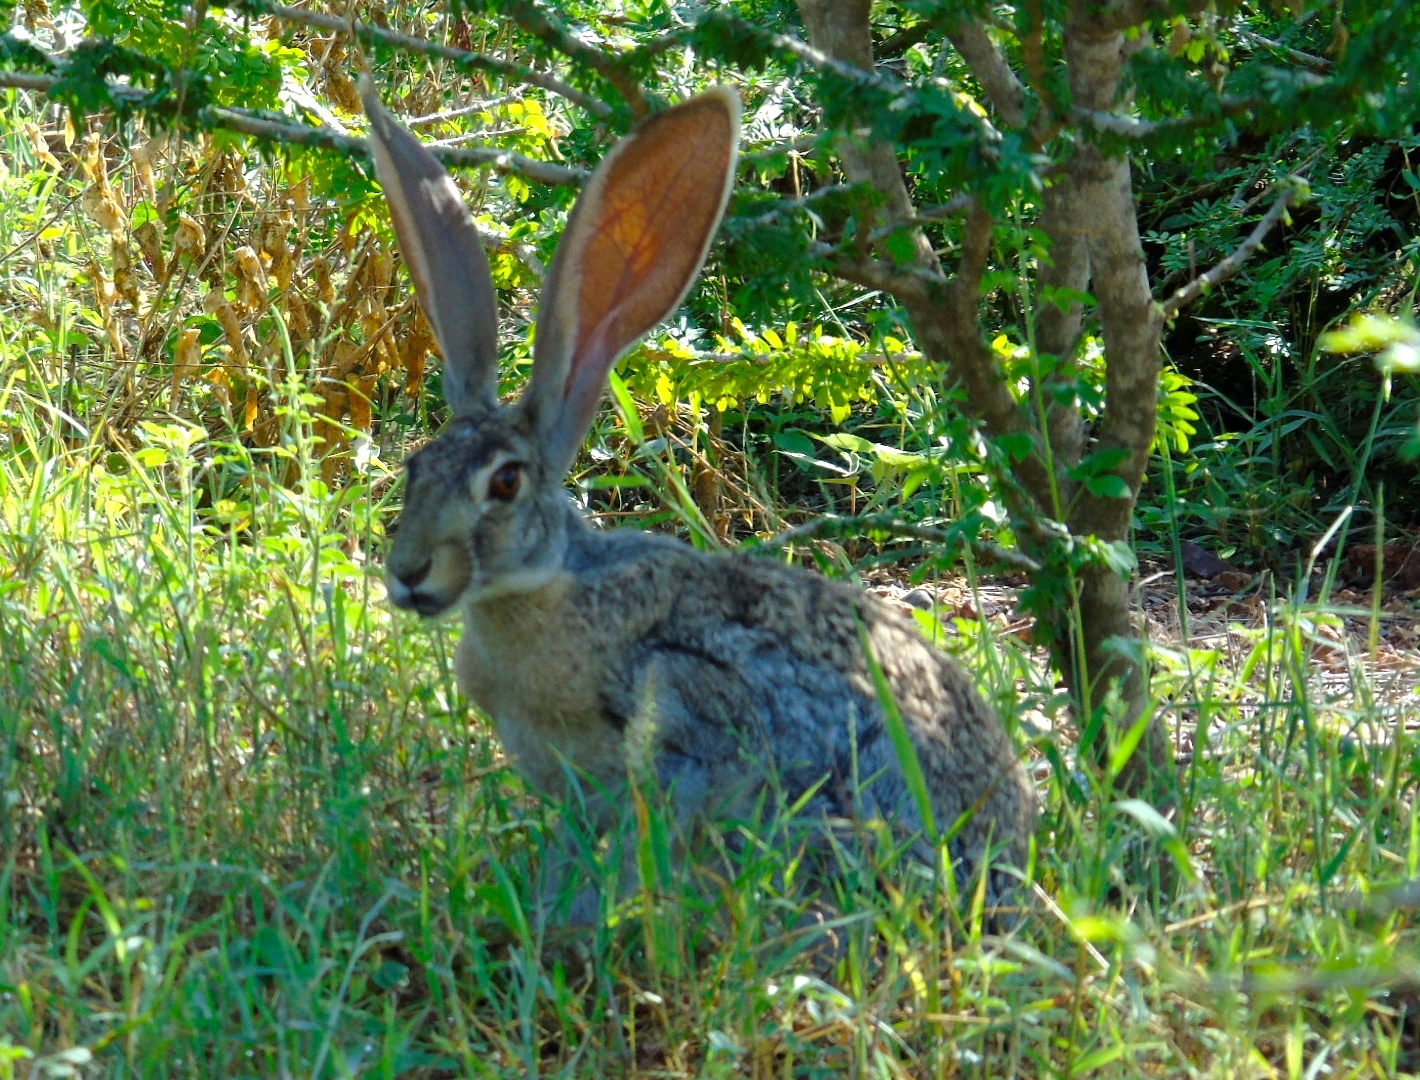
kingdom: Animalia
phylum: Chordata
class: Mammalia
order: Lagomorpha
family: Leporidae
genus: Lepus
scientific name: Lepus alleni
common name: Antelope jackrabbit
